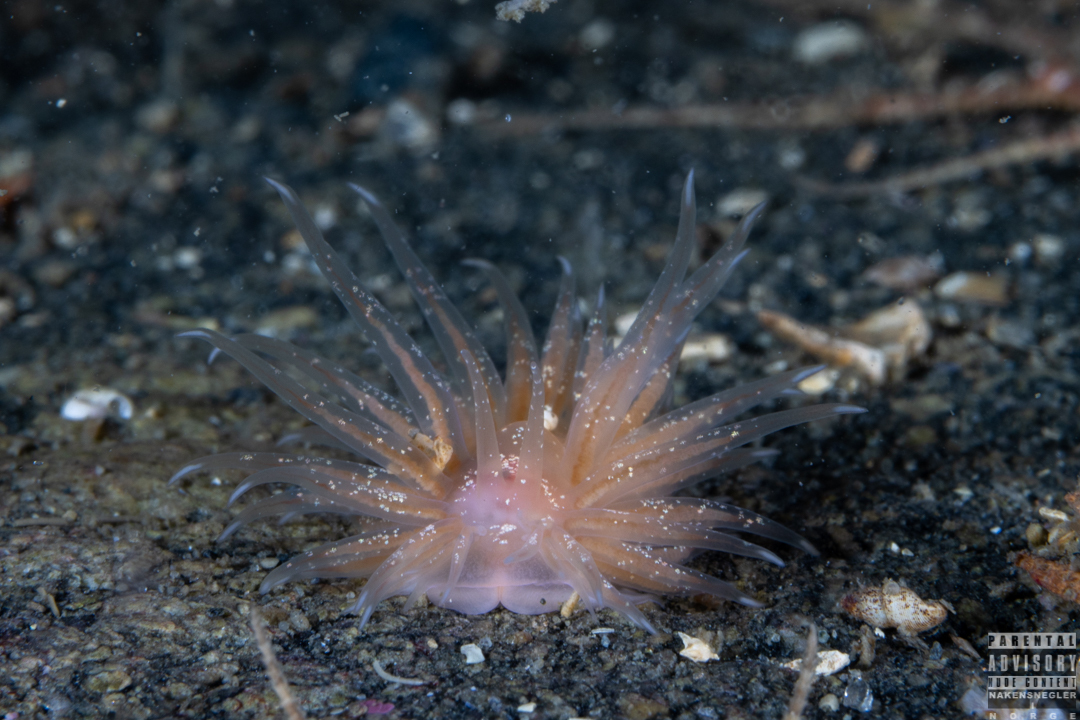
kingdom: Animalia
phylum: Mollusca
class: Gastropoda
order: Nudibranchia
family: Cumanotidae
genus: Cumanotus
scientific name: Cumanotus beaumonti
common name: Polyp aeolis
